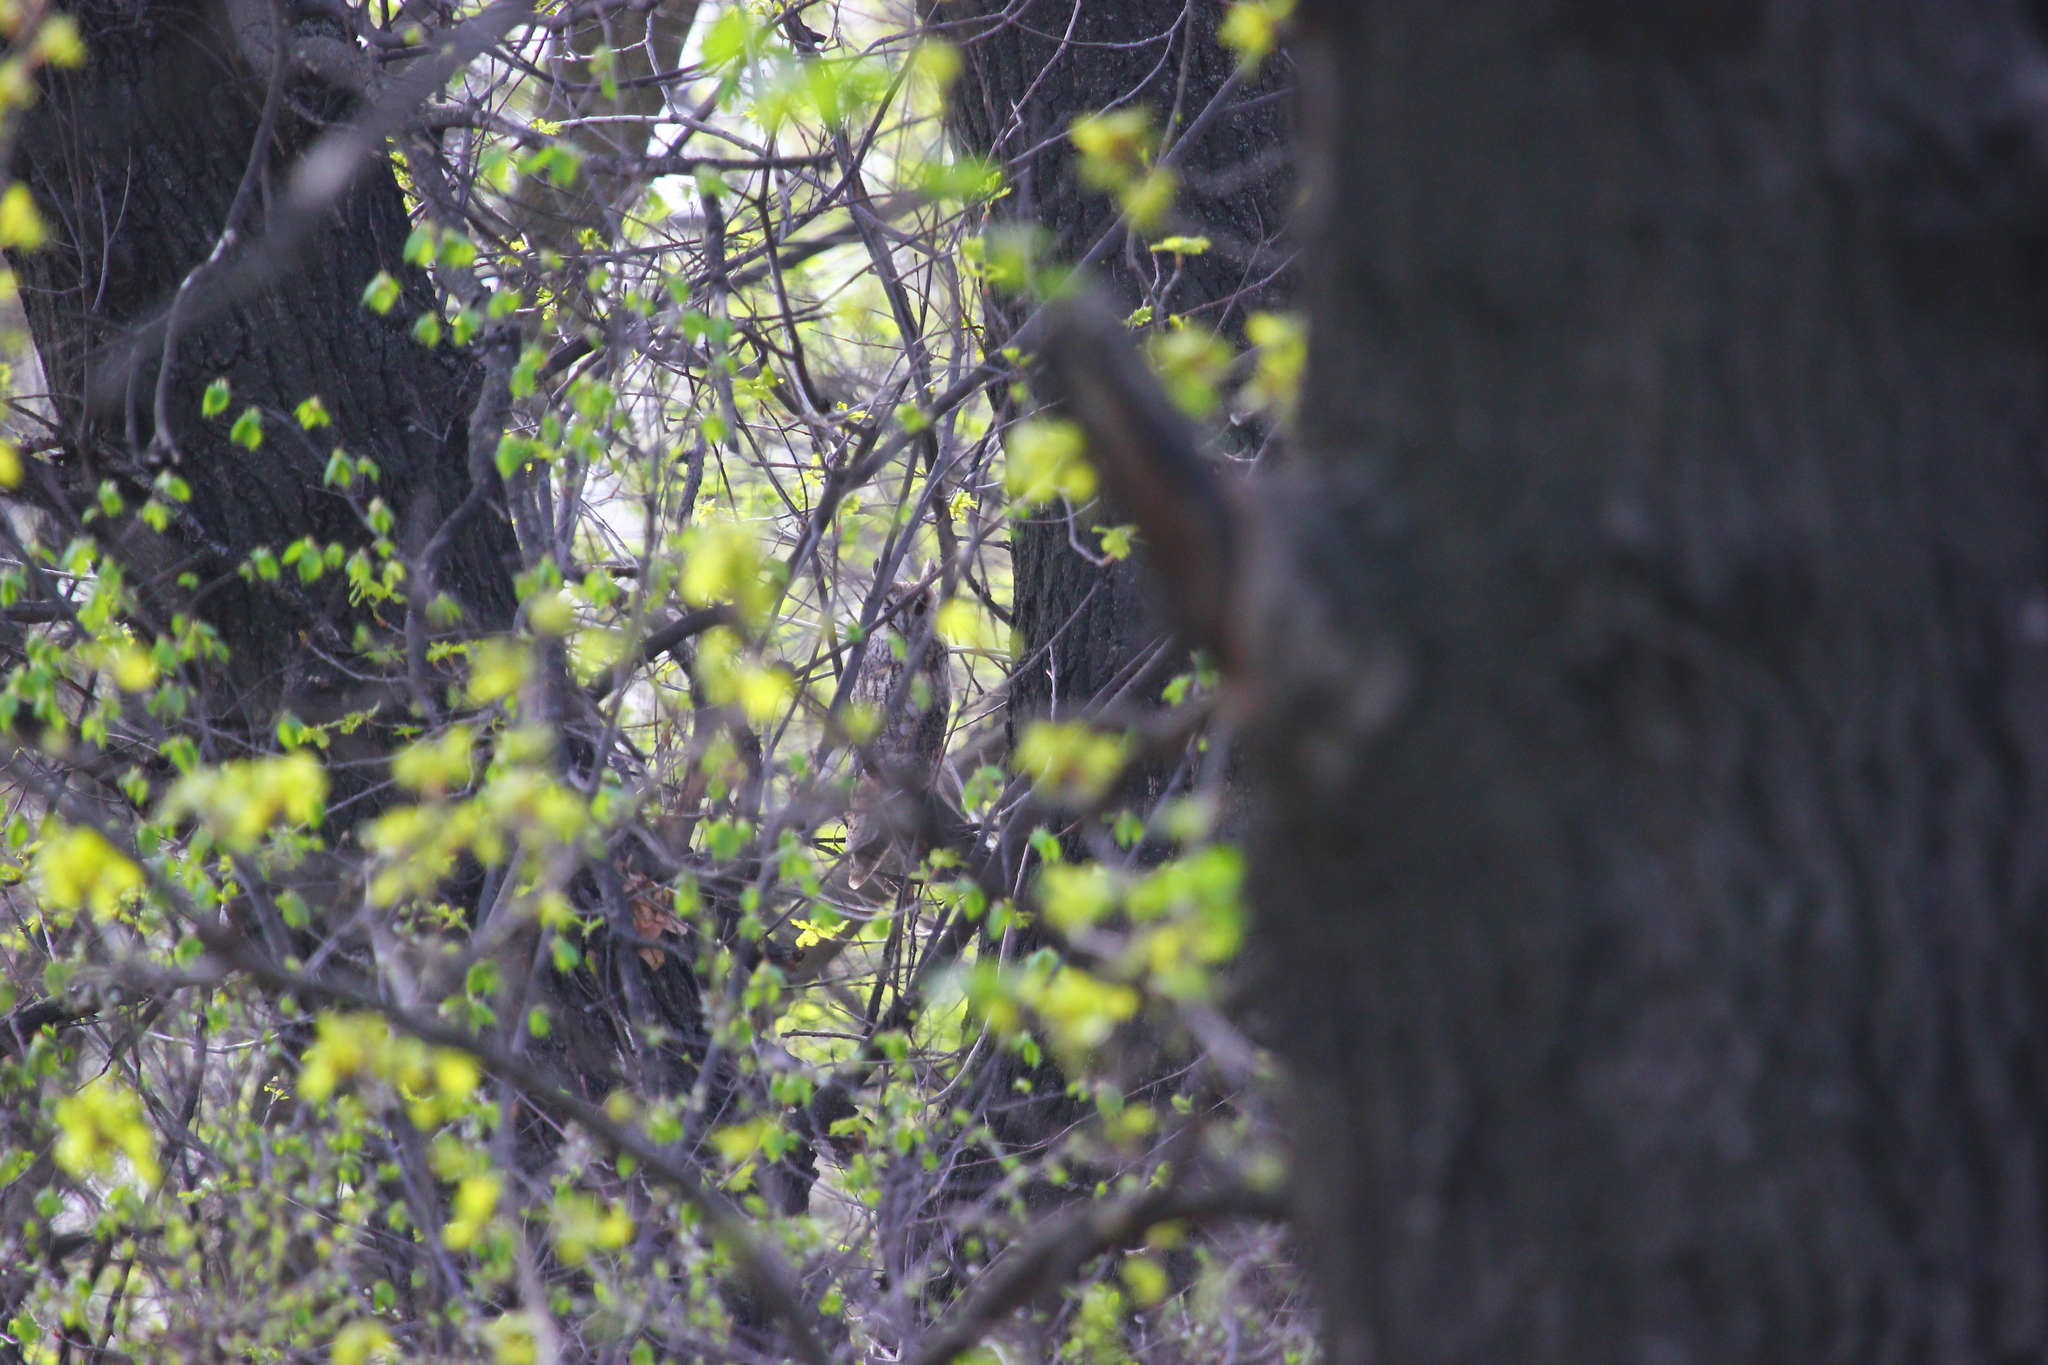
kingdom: Animalia
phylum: Chordata
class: Aves
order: Strigiformes
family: Strigidae
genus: Asio
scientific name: Asio otus
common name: Long-eared owl
